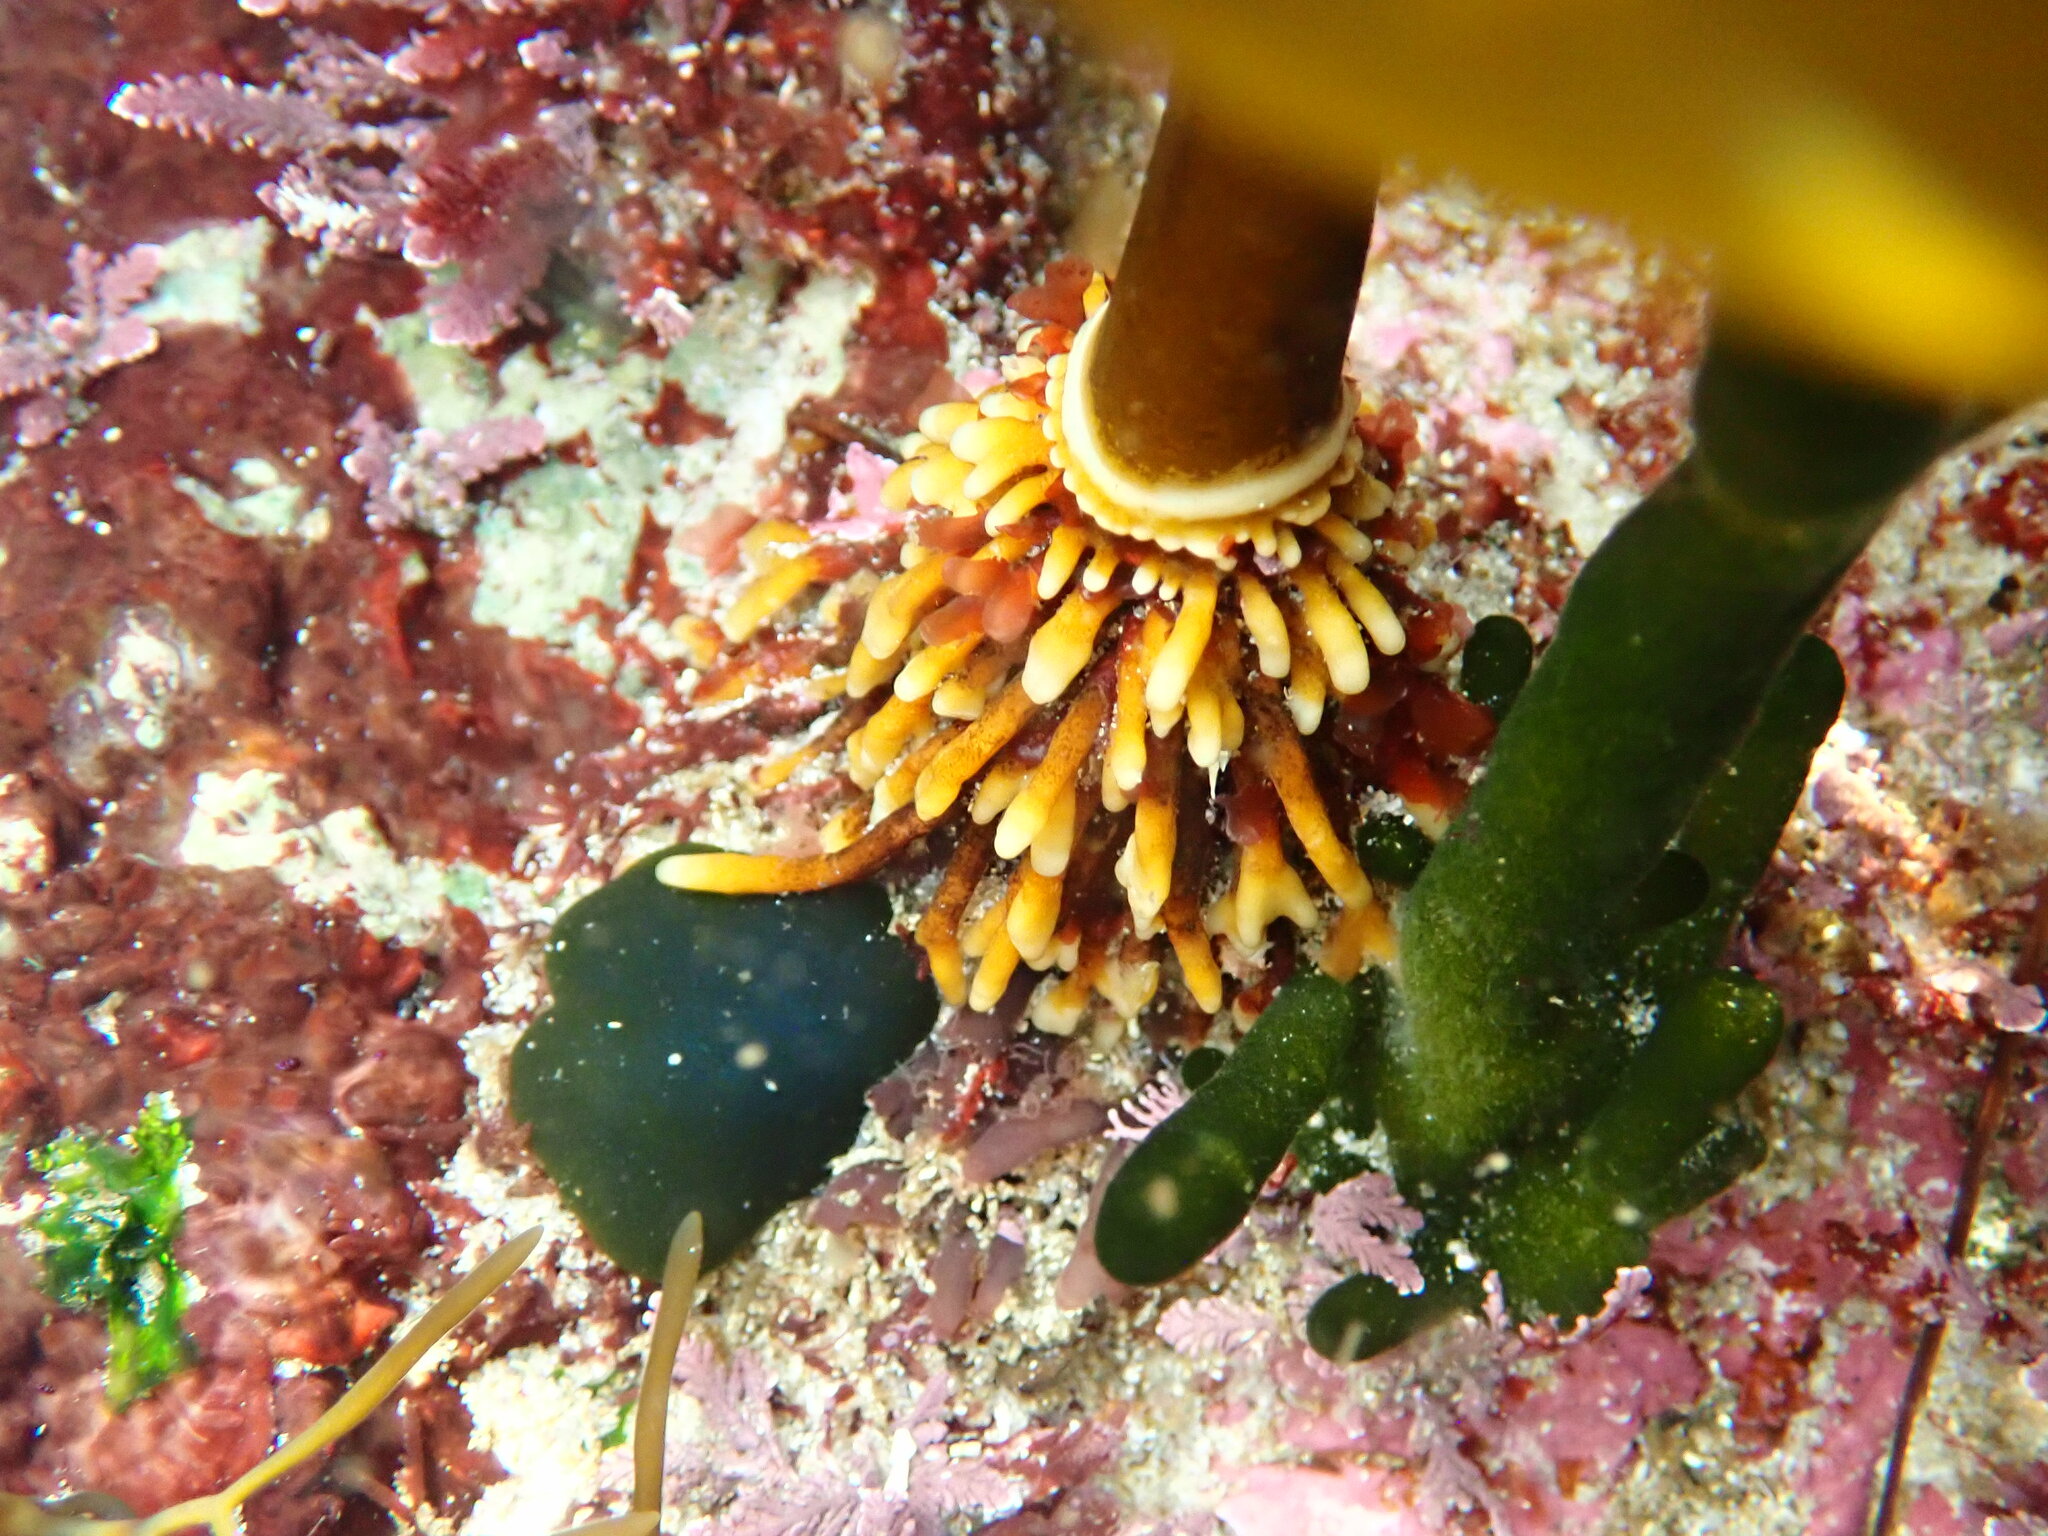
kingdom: Chromista
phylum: Ochrophyta
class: Phaeophyceae
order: Laminariales
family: Lessoniaceae
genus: Ecklonia
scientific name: Ecklonia radiata
